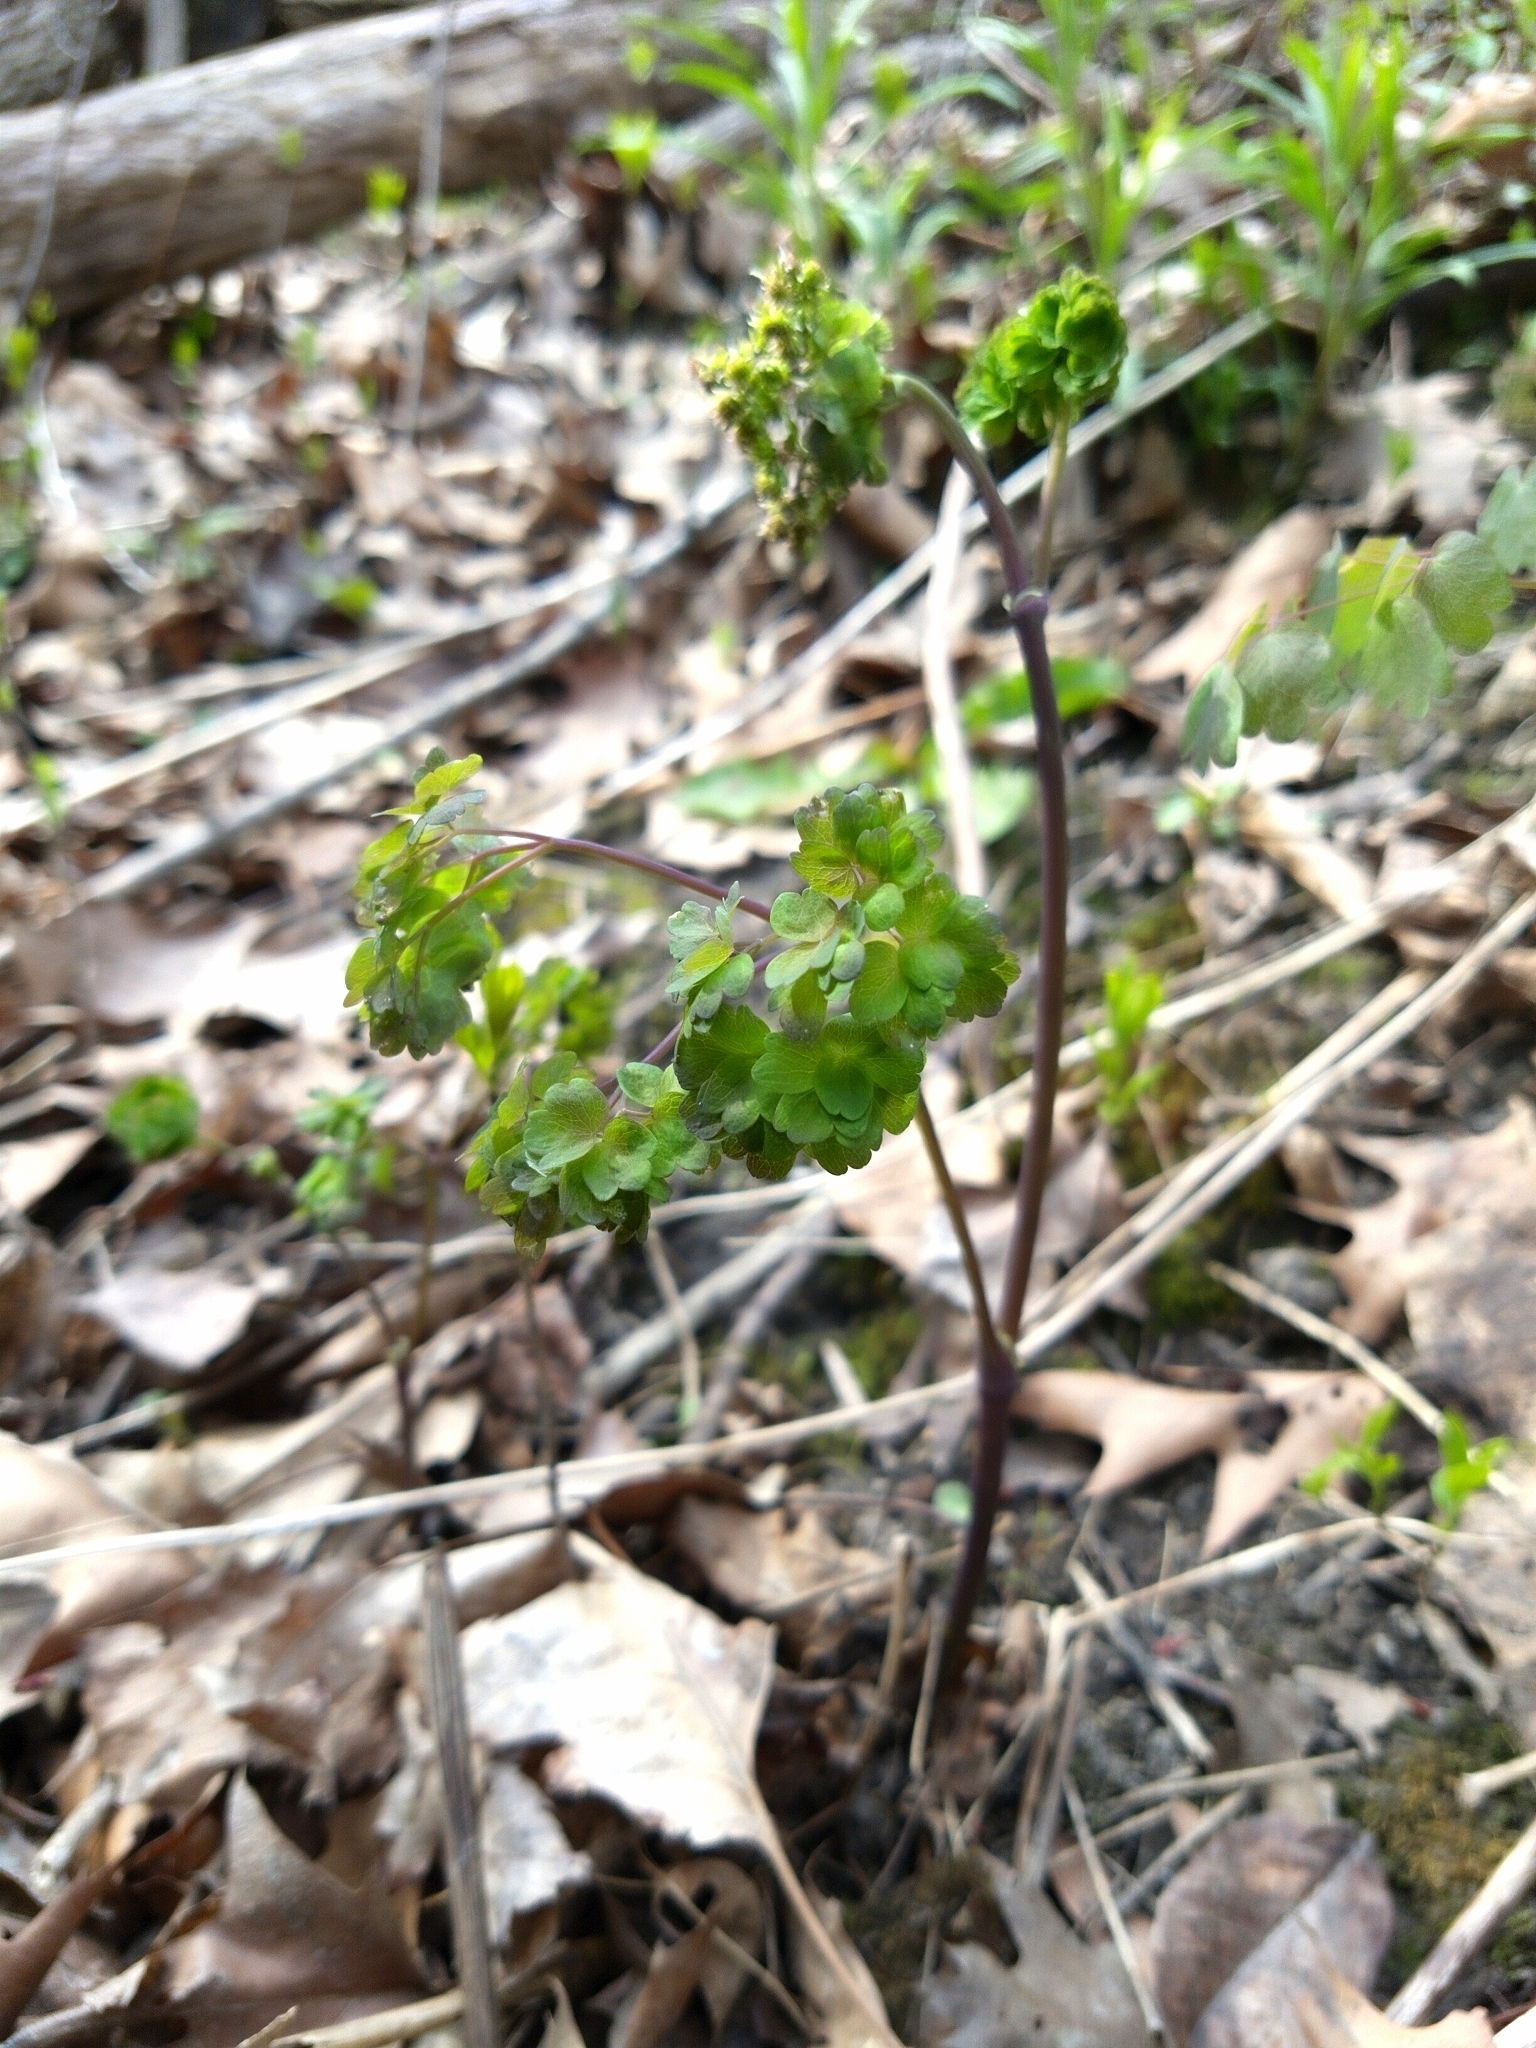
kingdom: Plantae
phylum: Tracheophyta
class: Magnoliopsida
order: Ranunculales
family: Ranunculaceae
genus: Thalictrum
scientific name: Thalictrum dioicum
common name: Early meadow-rue
